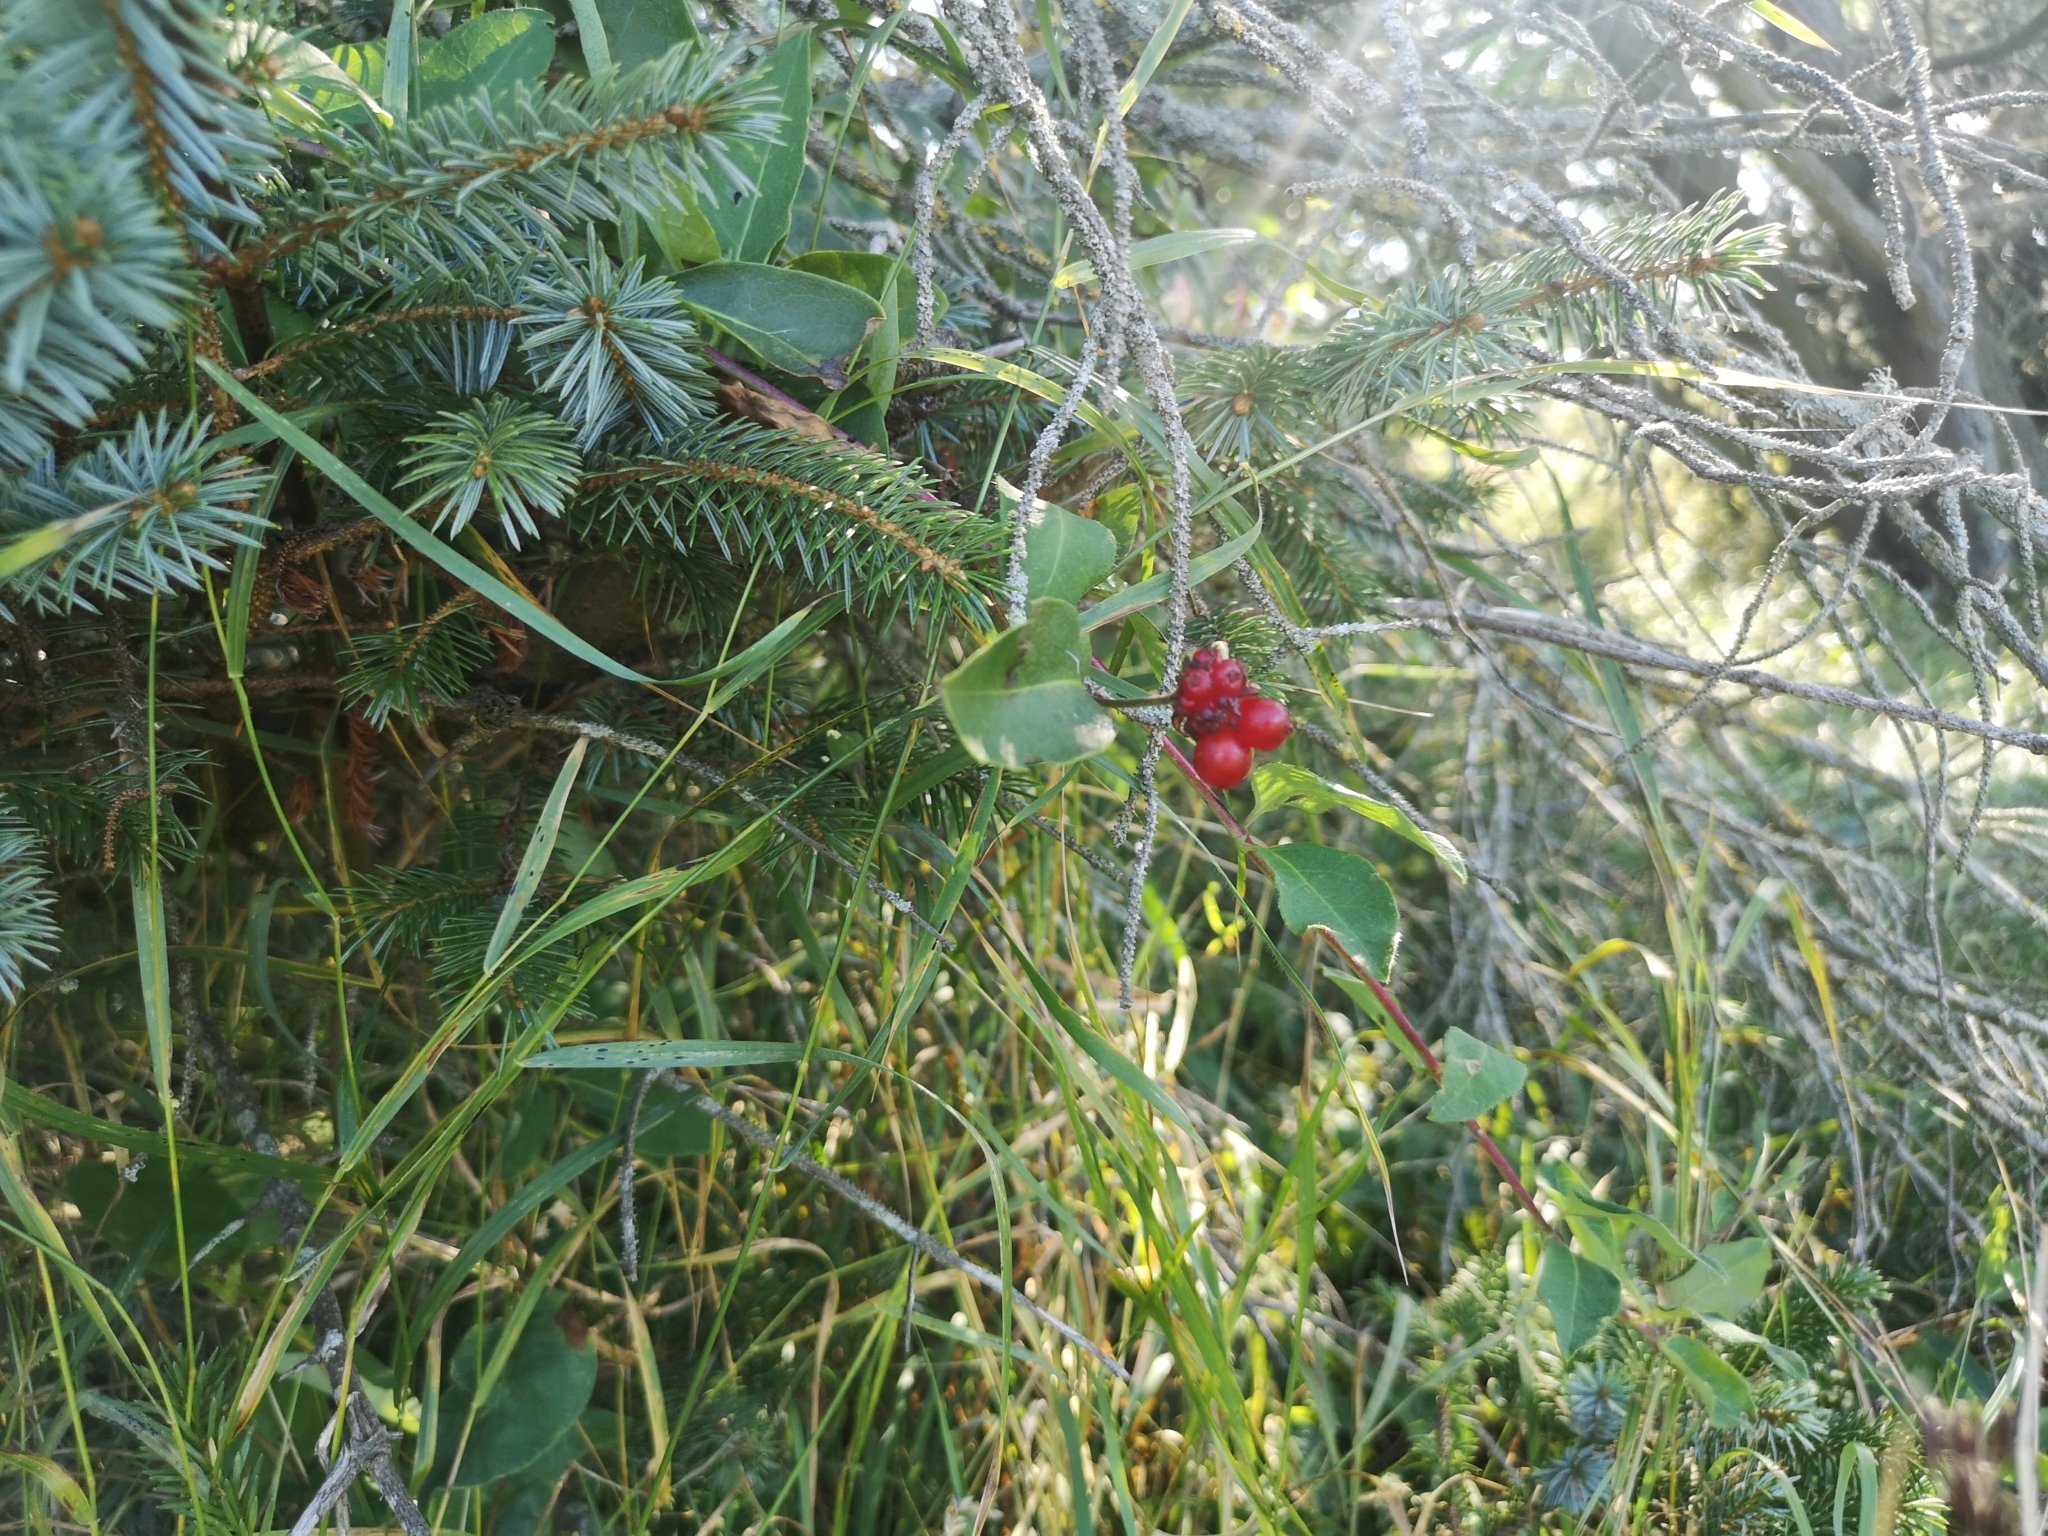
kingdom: Plantae
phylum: Tracheophyta
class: Magnoliopsida
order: Dipsacales
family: Caprifoliaceae
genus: Lonicera
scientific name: Lonicera periclymenum
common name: European honeysuckle
